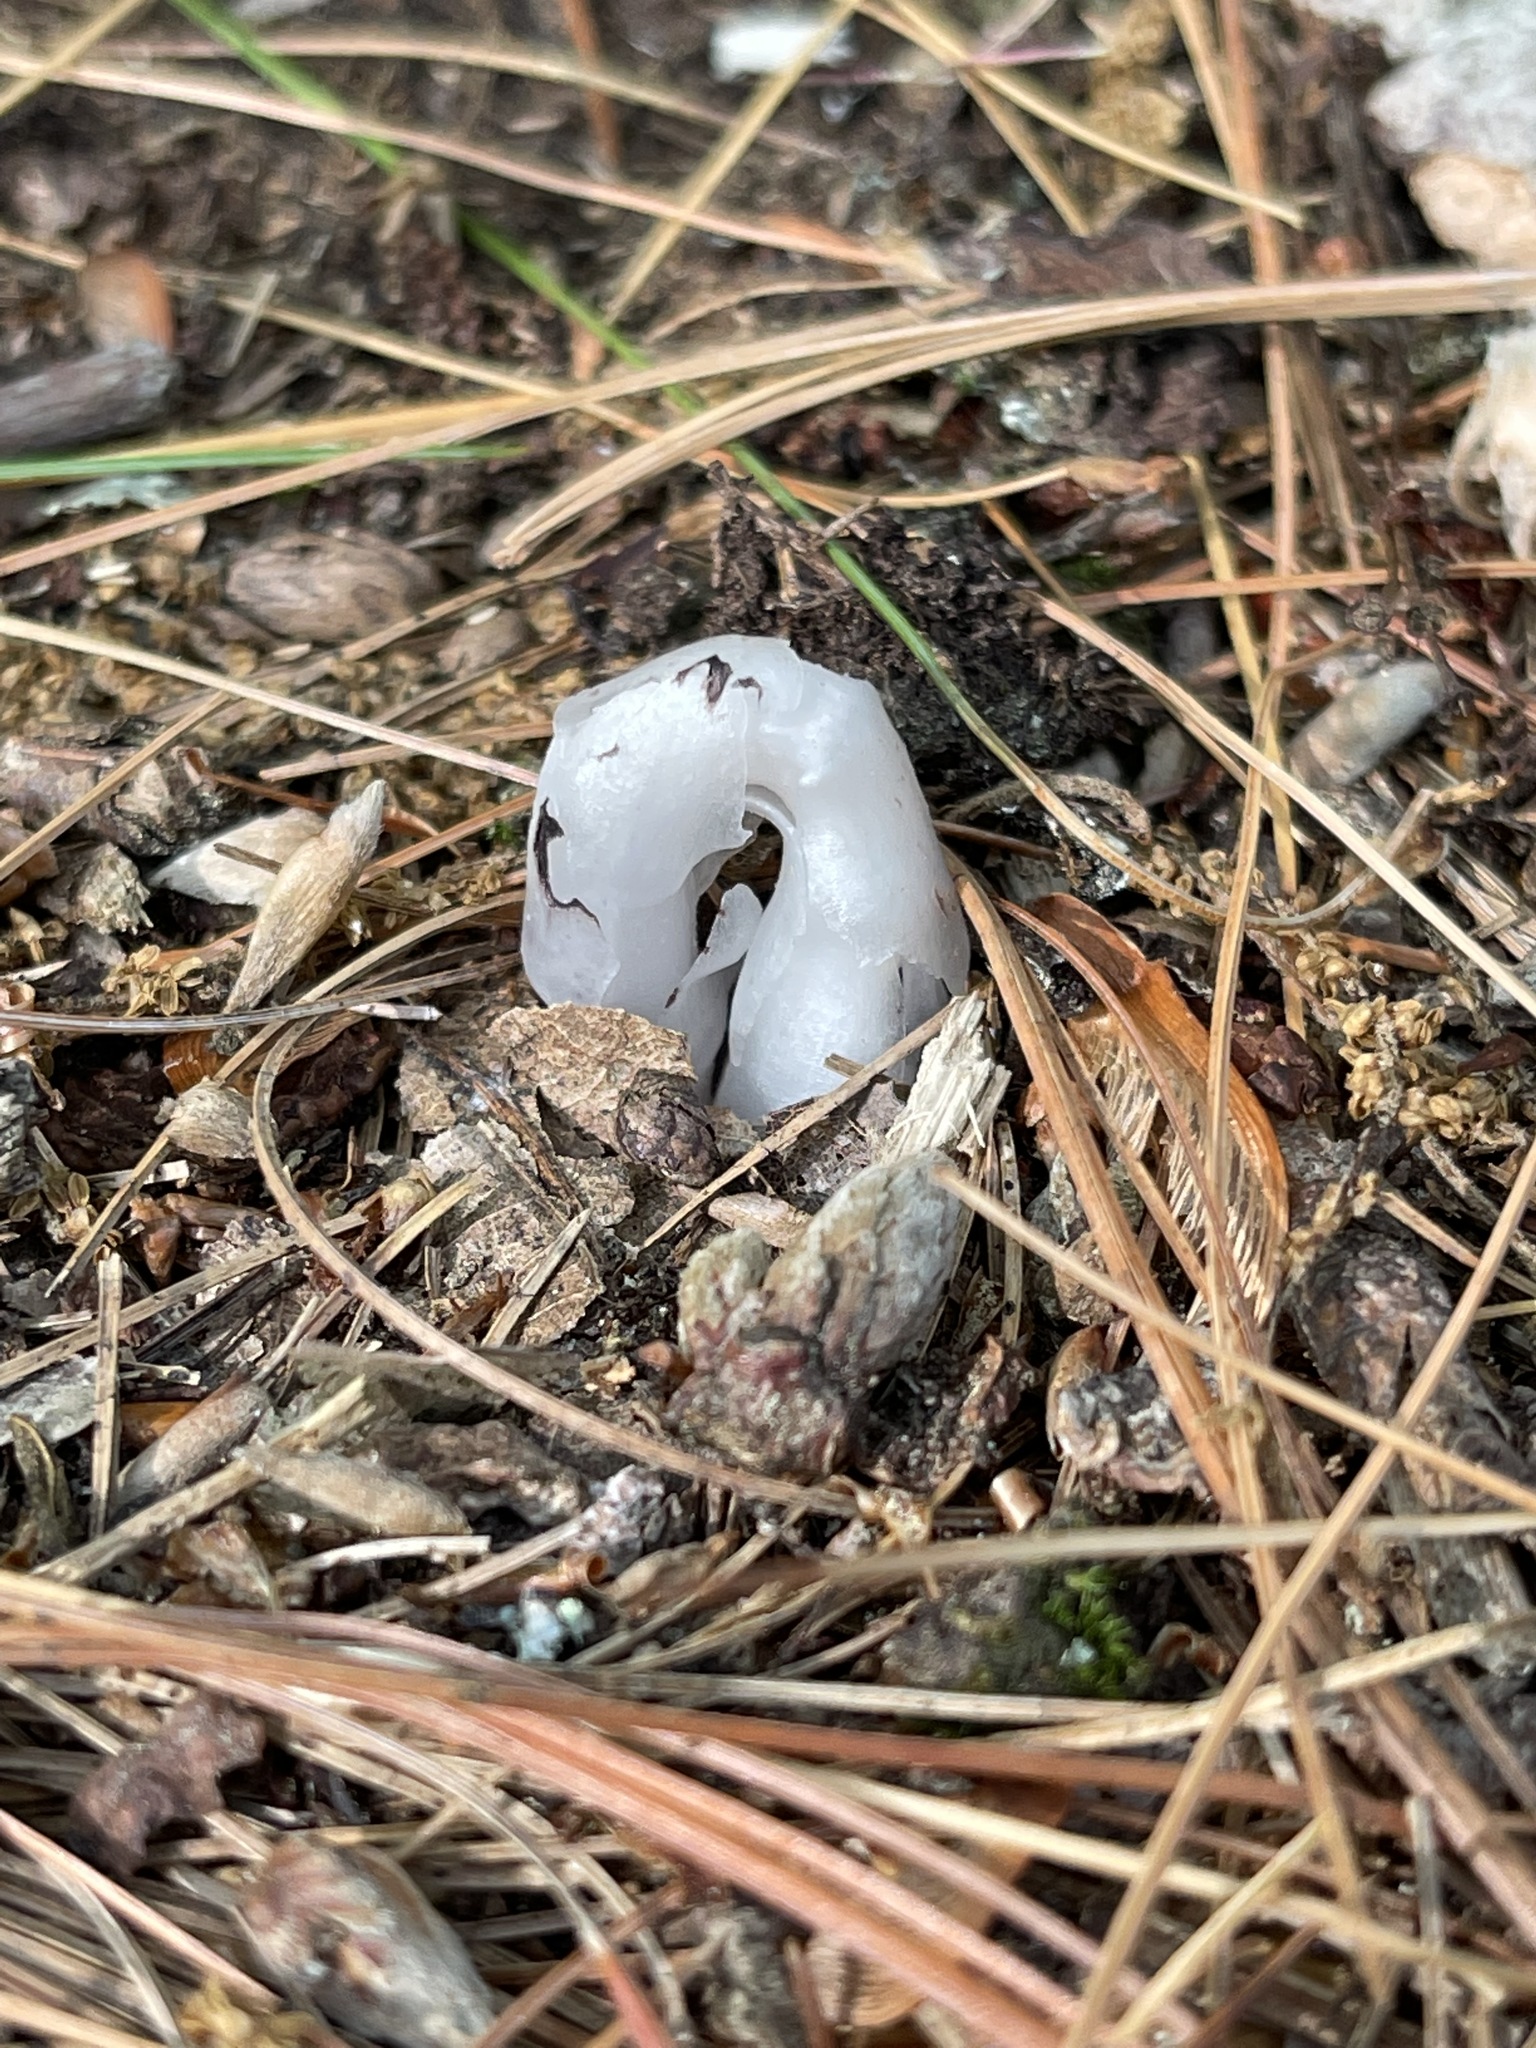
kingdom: Plantae
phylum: Tracheophyta
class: Magnoliopsida
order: Ericales
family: Ericaceae
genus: Monotropa
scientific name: Monotropa uniflora
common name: Convulsion root
